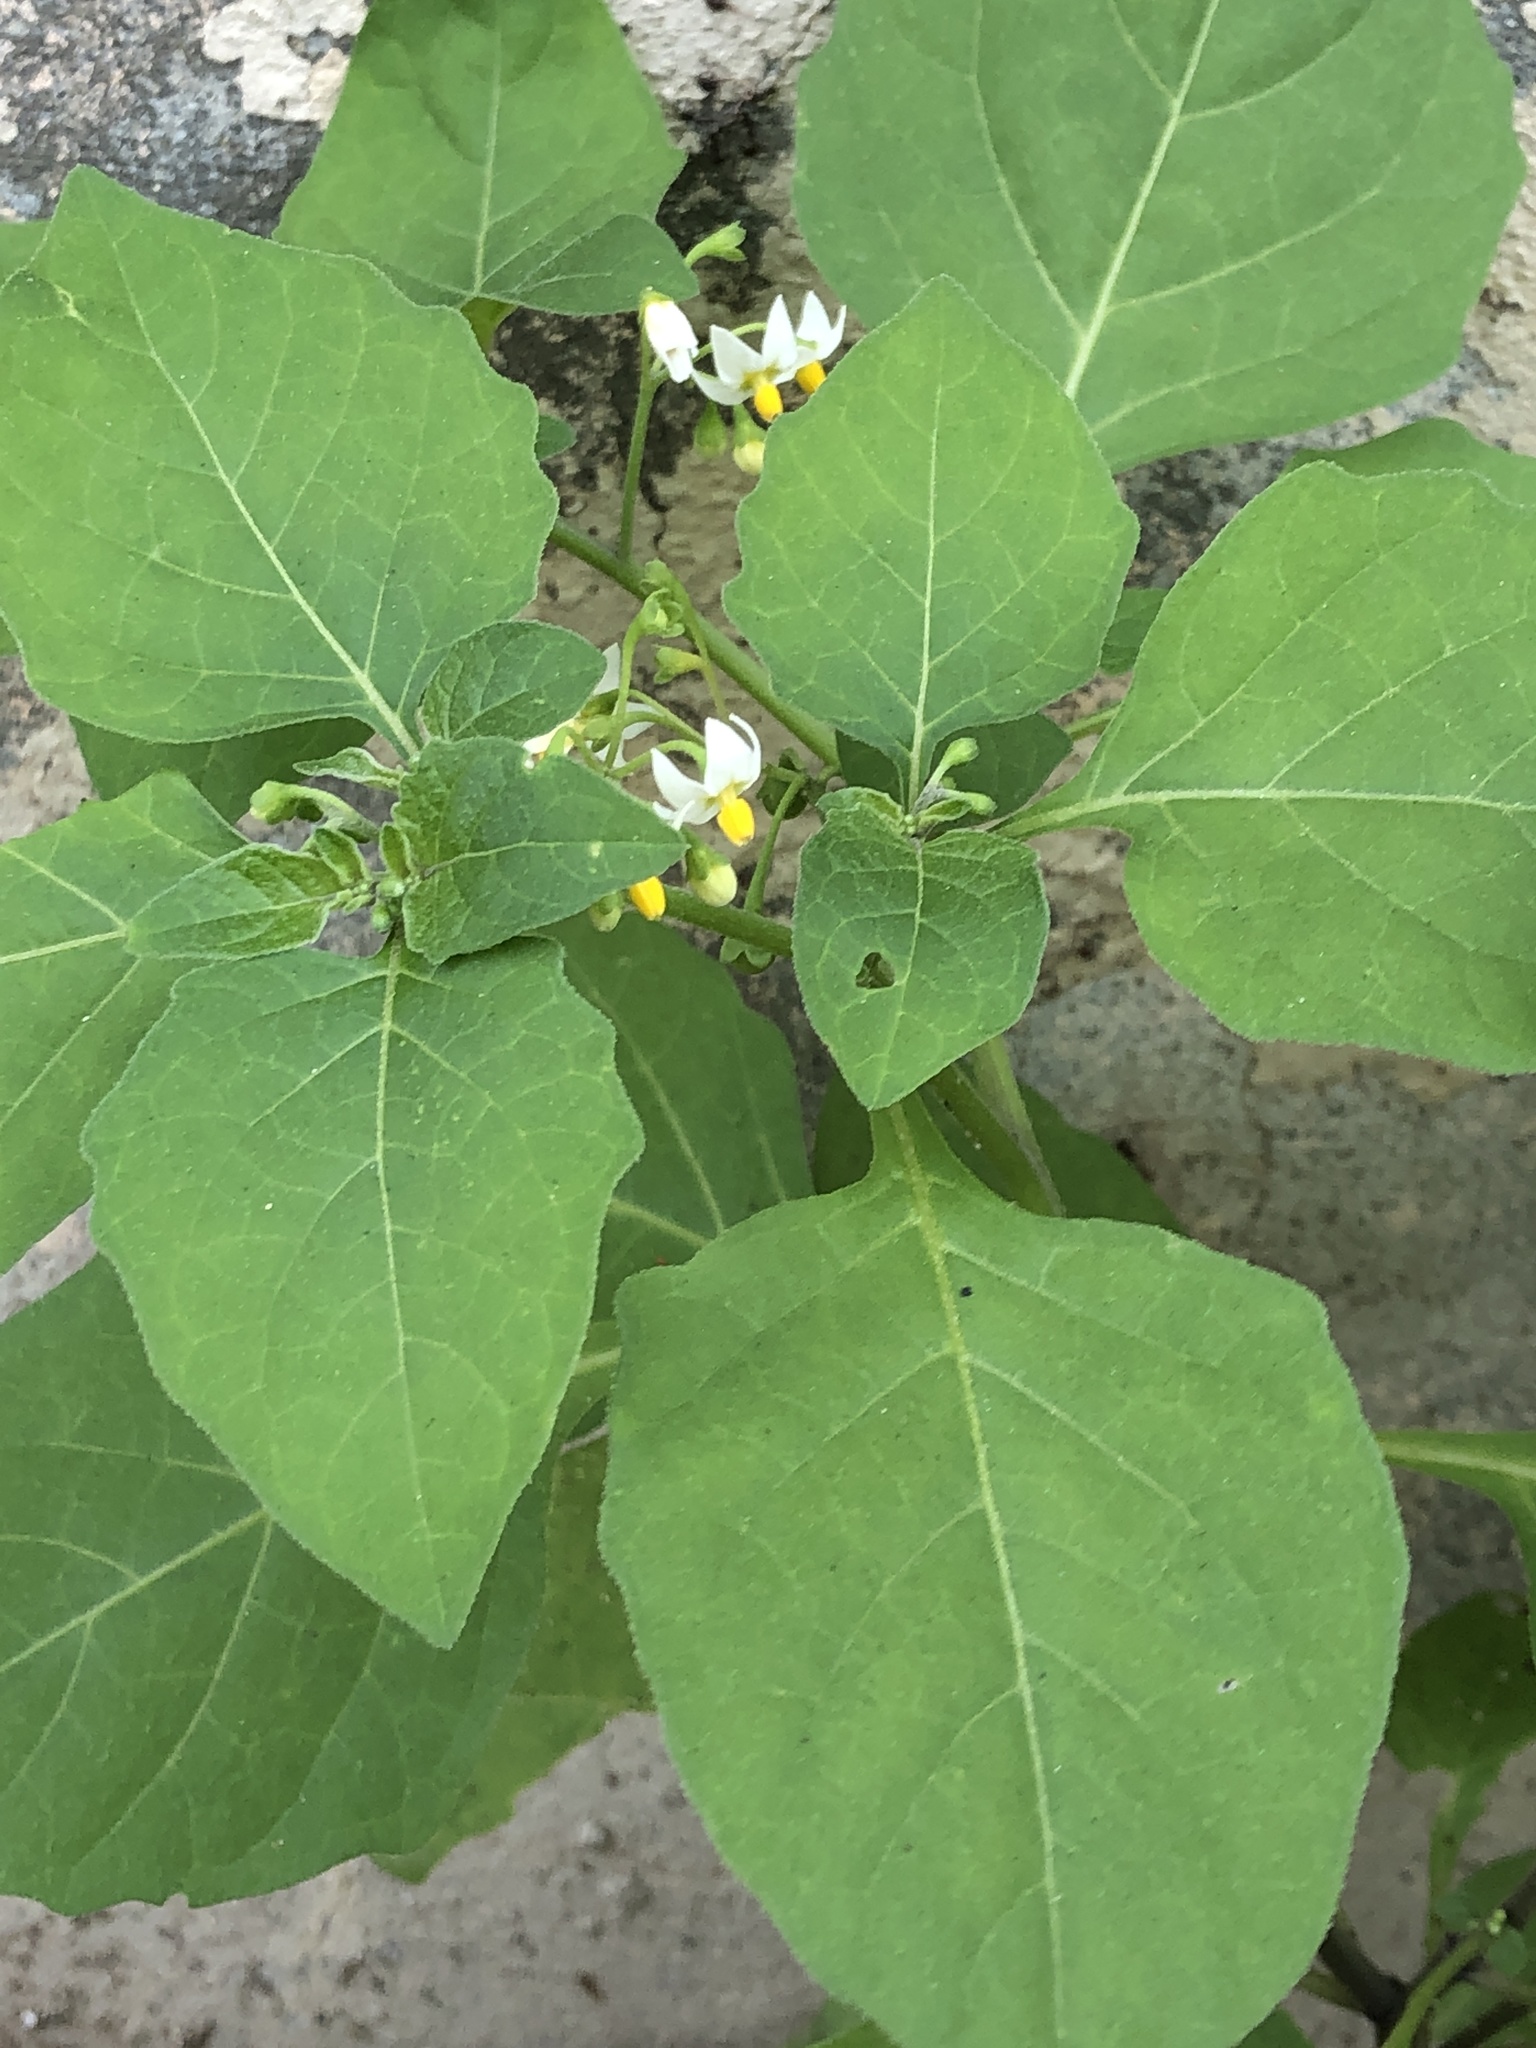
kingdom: Plantae
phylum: Tracheophyta
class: Magnoliopsida
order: Solanales
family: Solanaceae
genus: Solanum
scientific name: Solanum nigrum
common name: Black nightshade
